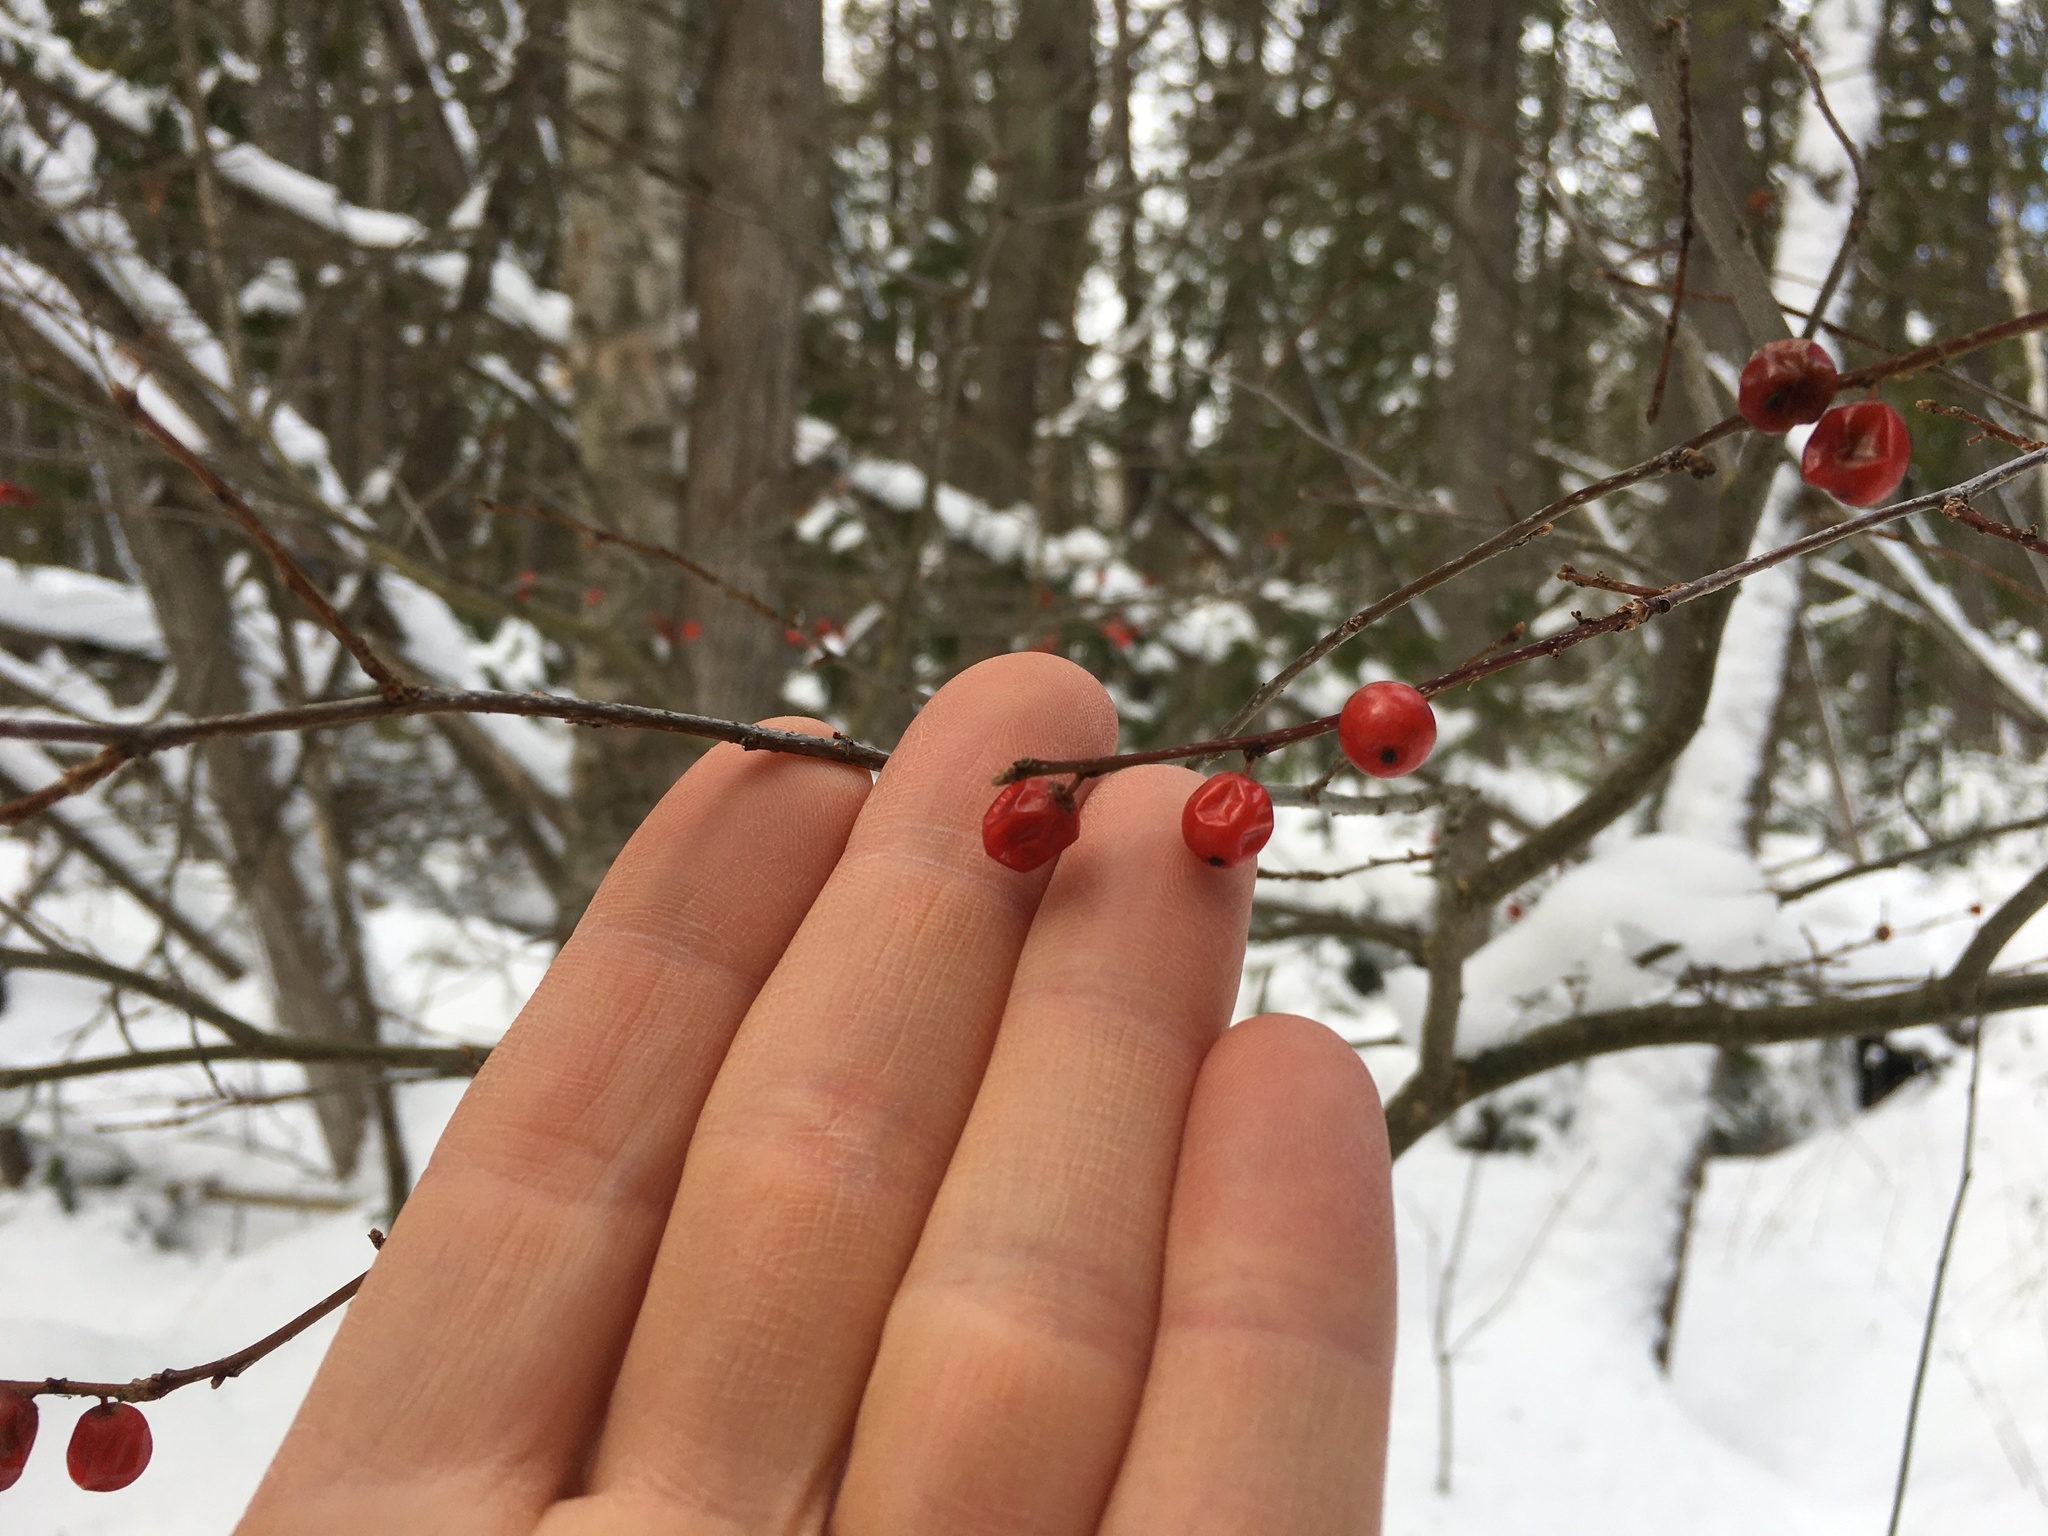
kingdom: Plantae
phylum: Tracheophyta
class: Magnoliopsida
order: Aquifoliales
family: Aquifoliaceae
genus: Ilex
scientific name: Ilex verticillata
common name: Virginia winterberry
